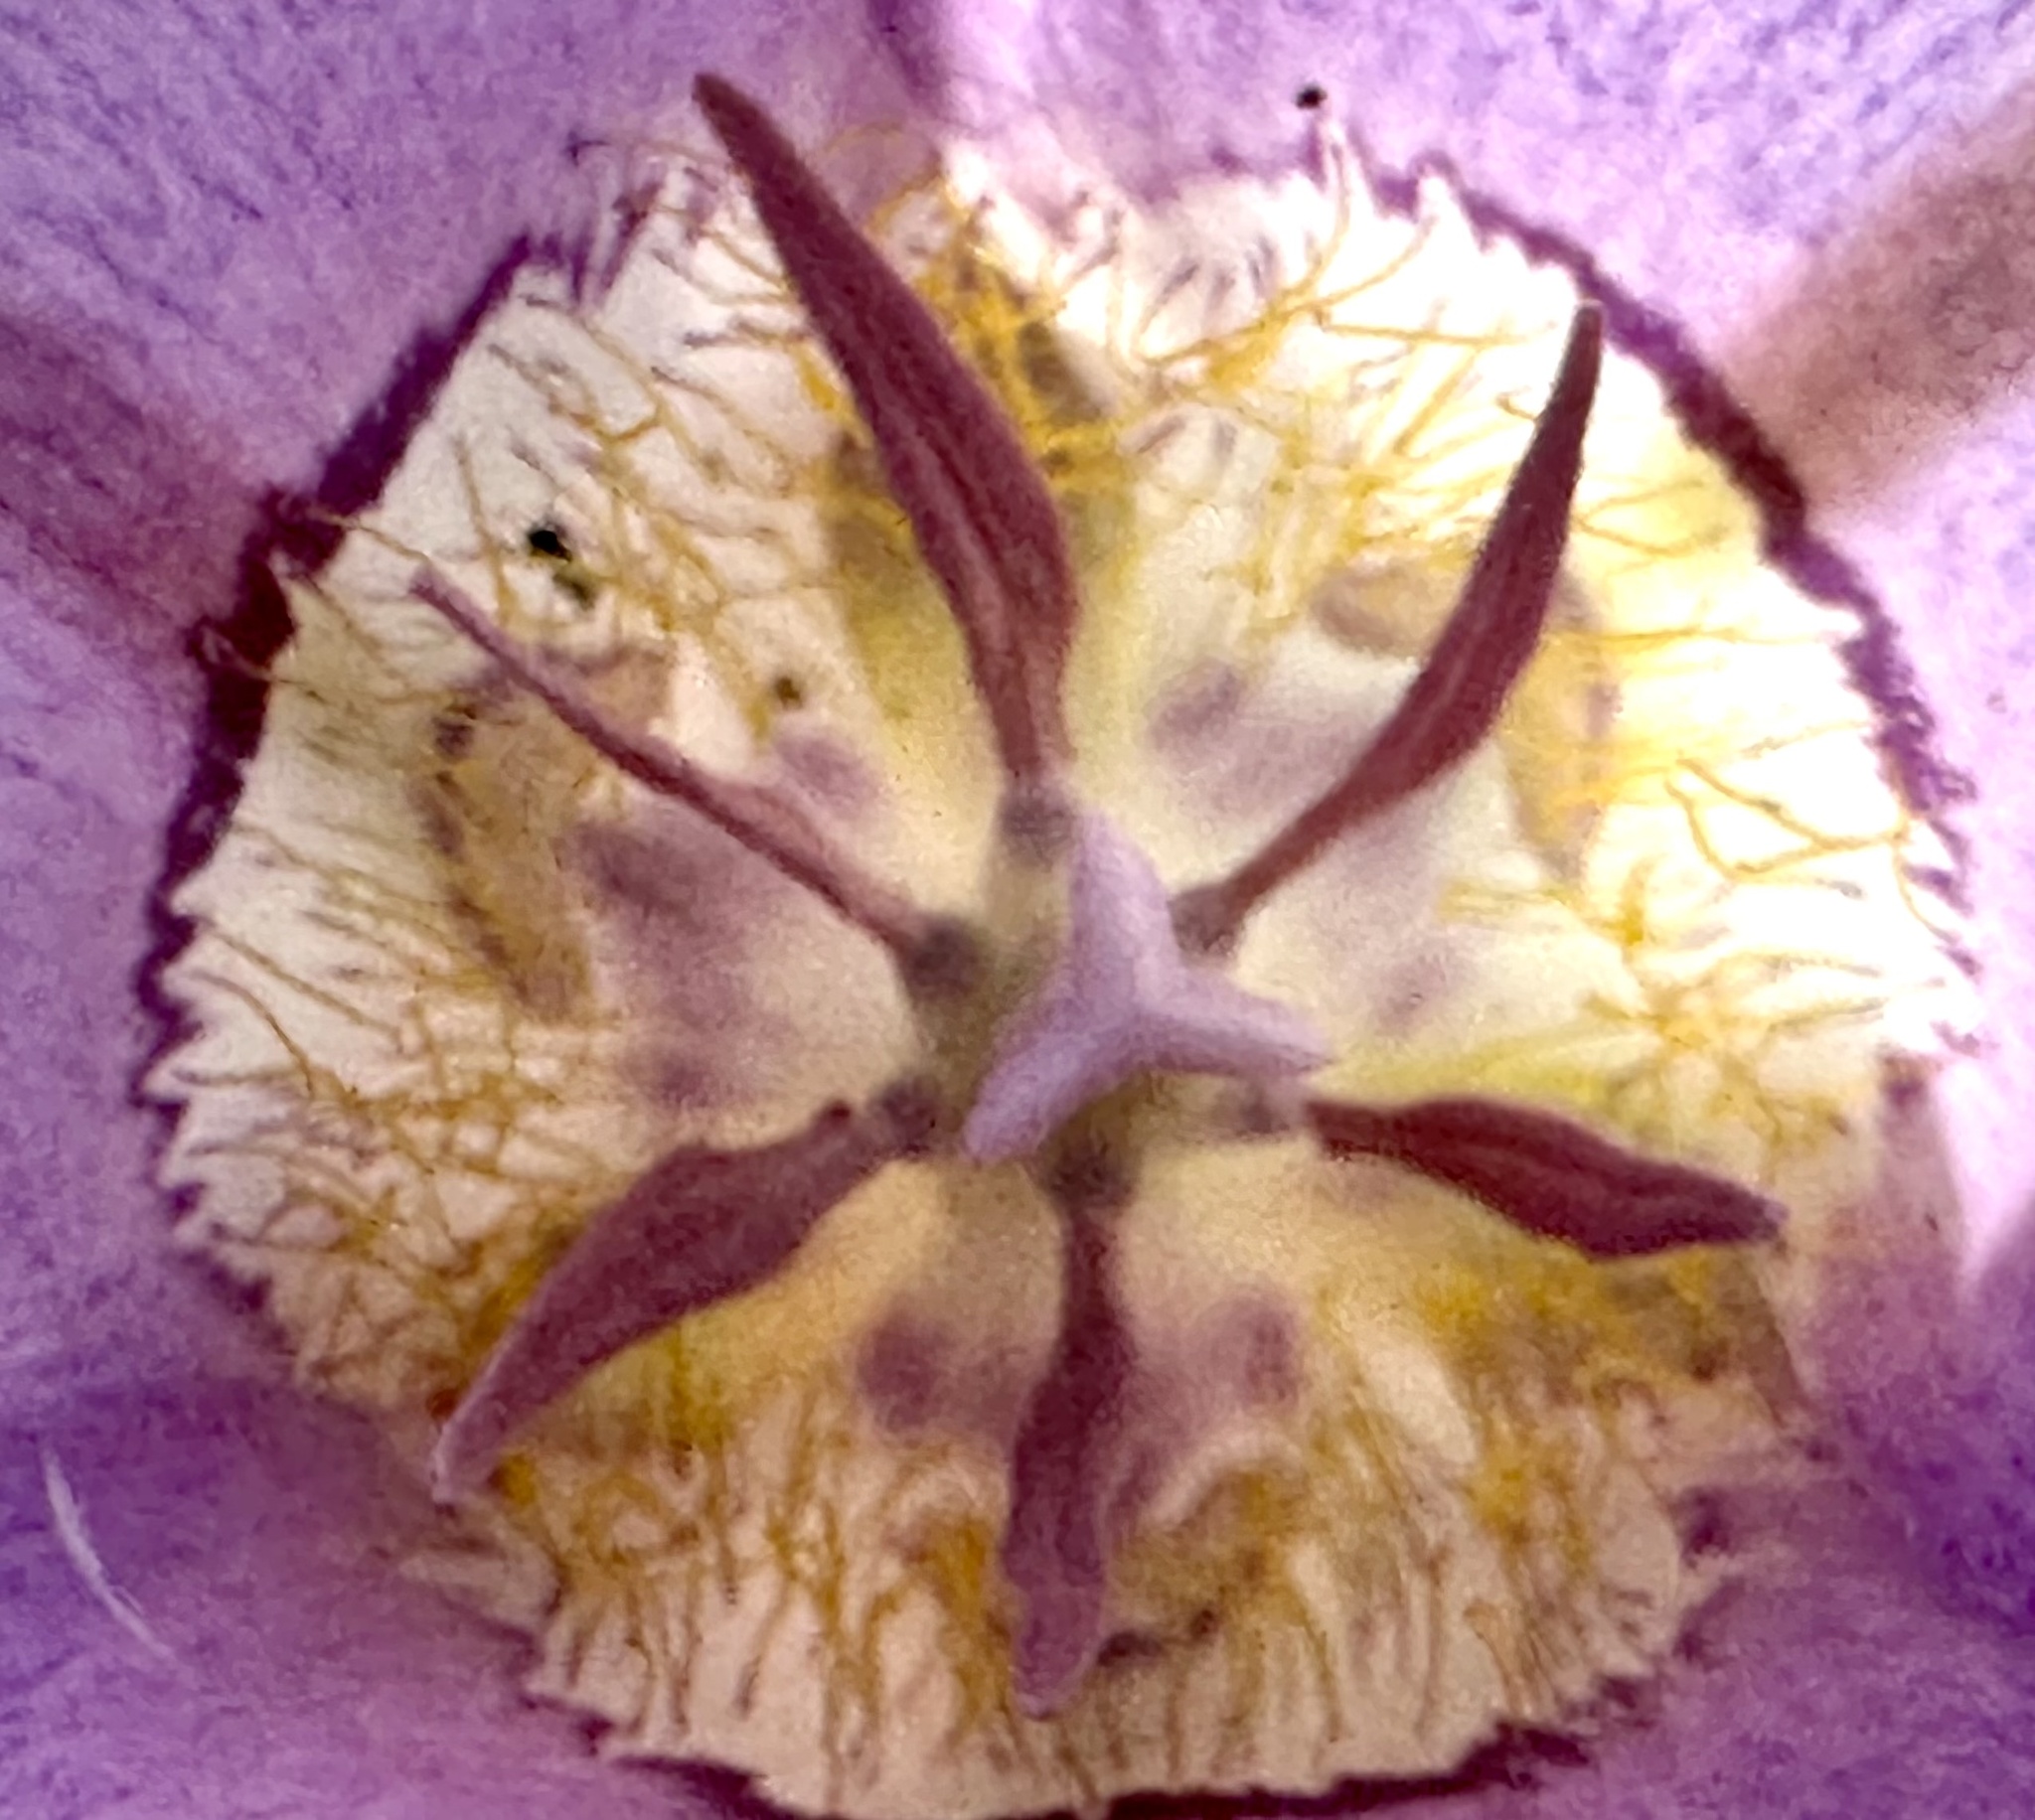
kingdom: Plantae
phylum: Tracheophyta
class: Liliopsida
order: Liliales
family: Liliaceae
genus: Calochortus
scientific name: Calochortus macrocarpus
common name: Green-band mariposa lily
